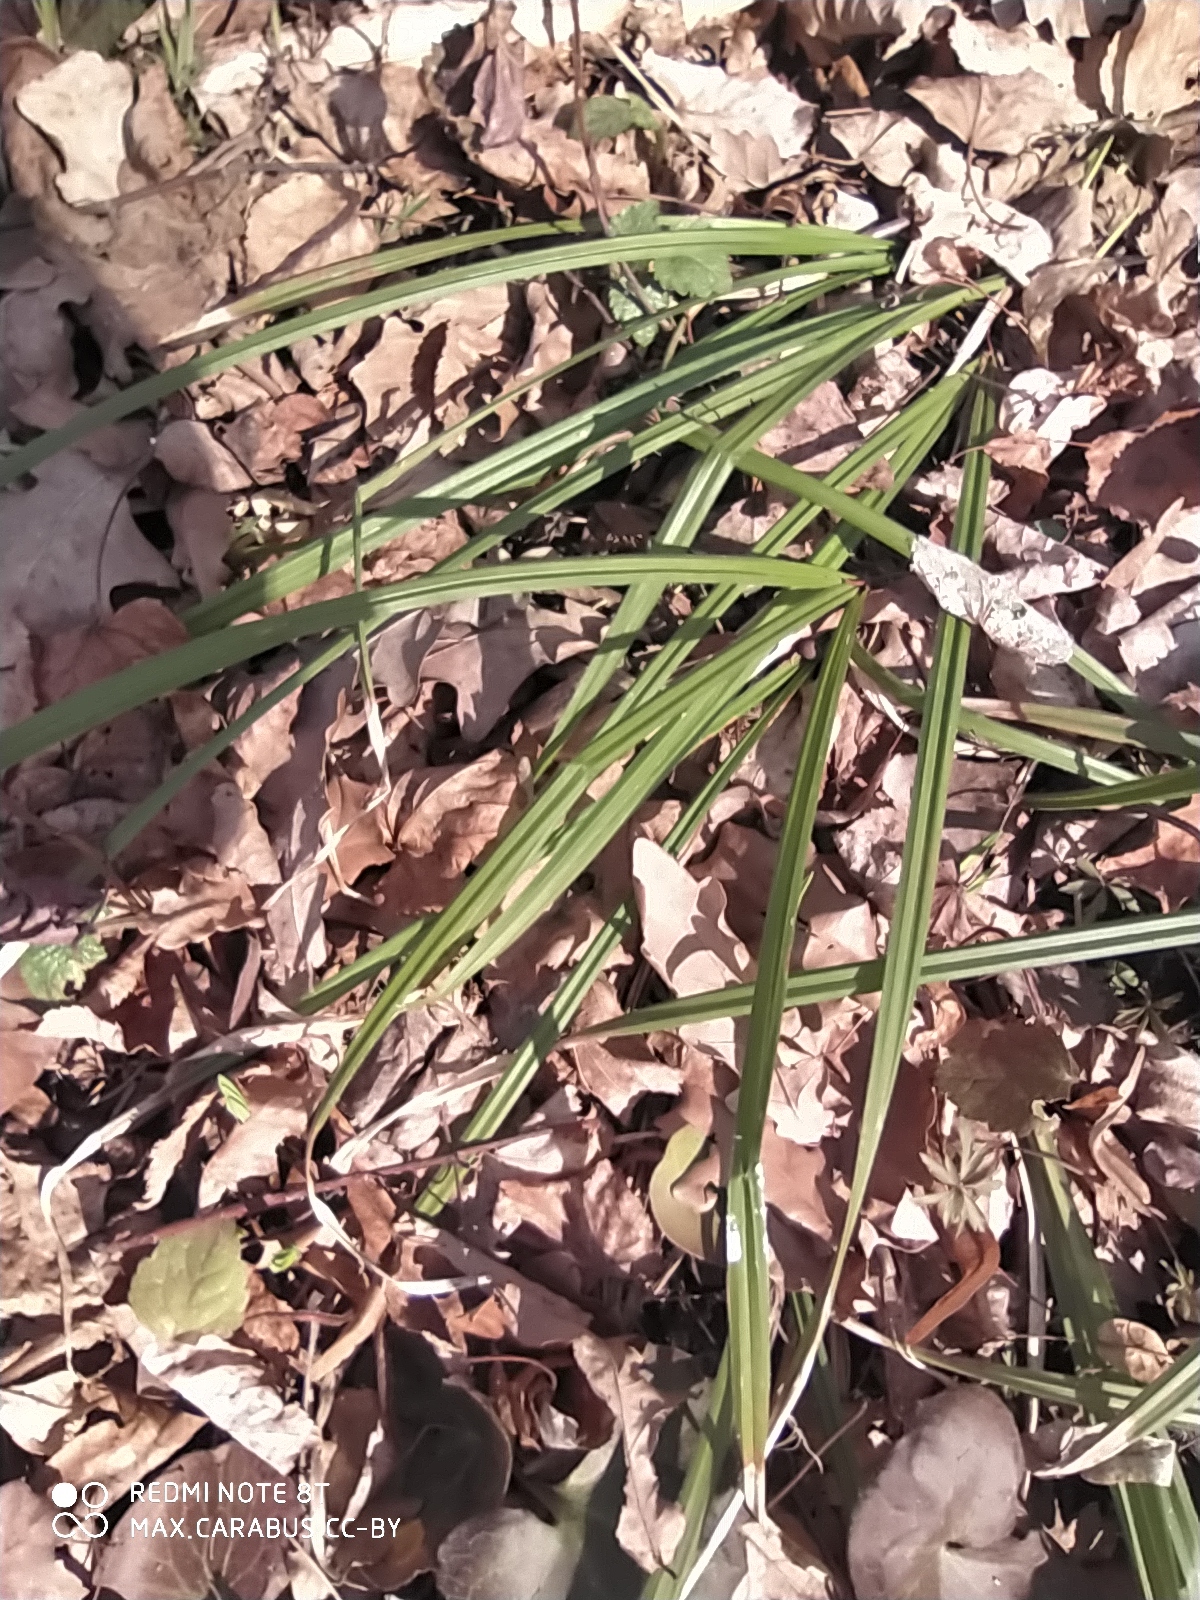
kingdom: Plantae
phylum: Tracheophyta
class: Liliopsida
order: Poales
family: Cyperaceae
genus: Carex
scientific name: Carex pilosa
